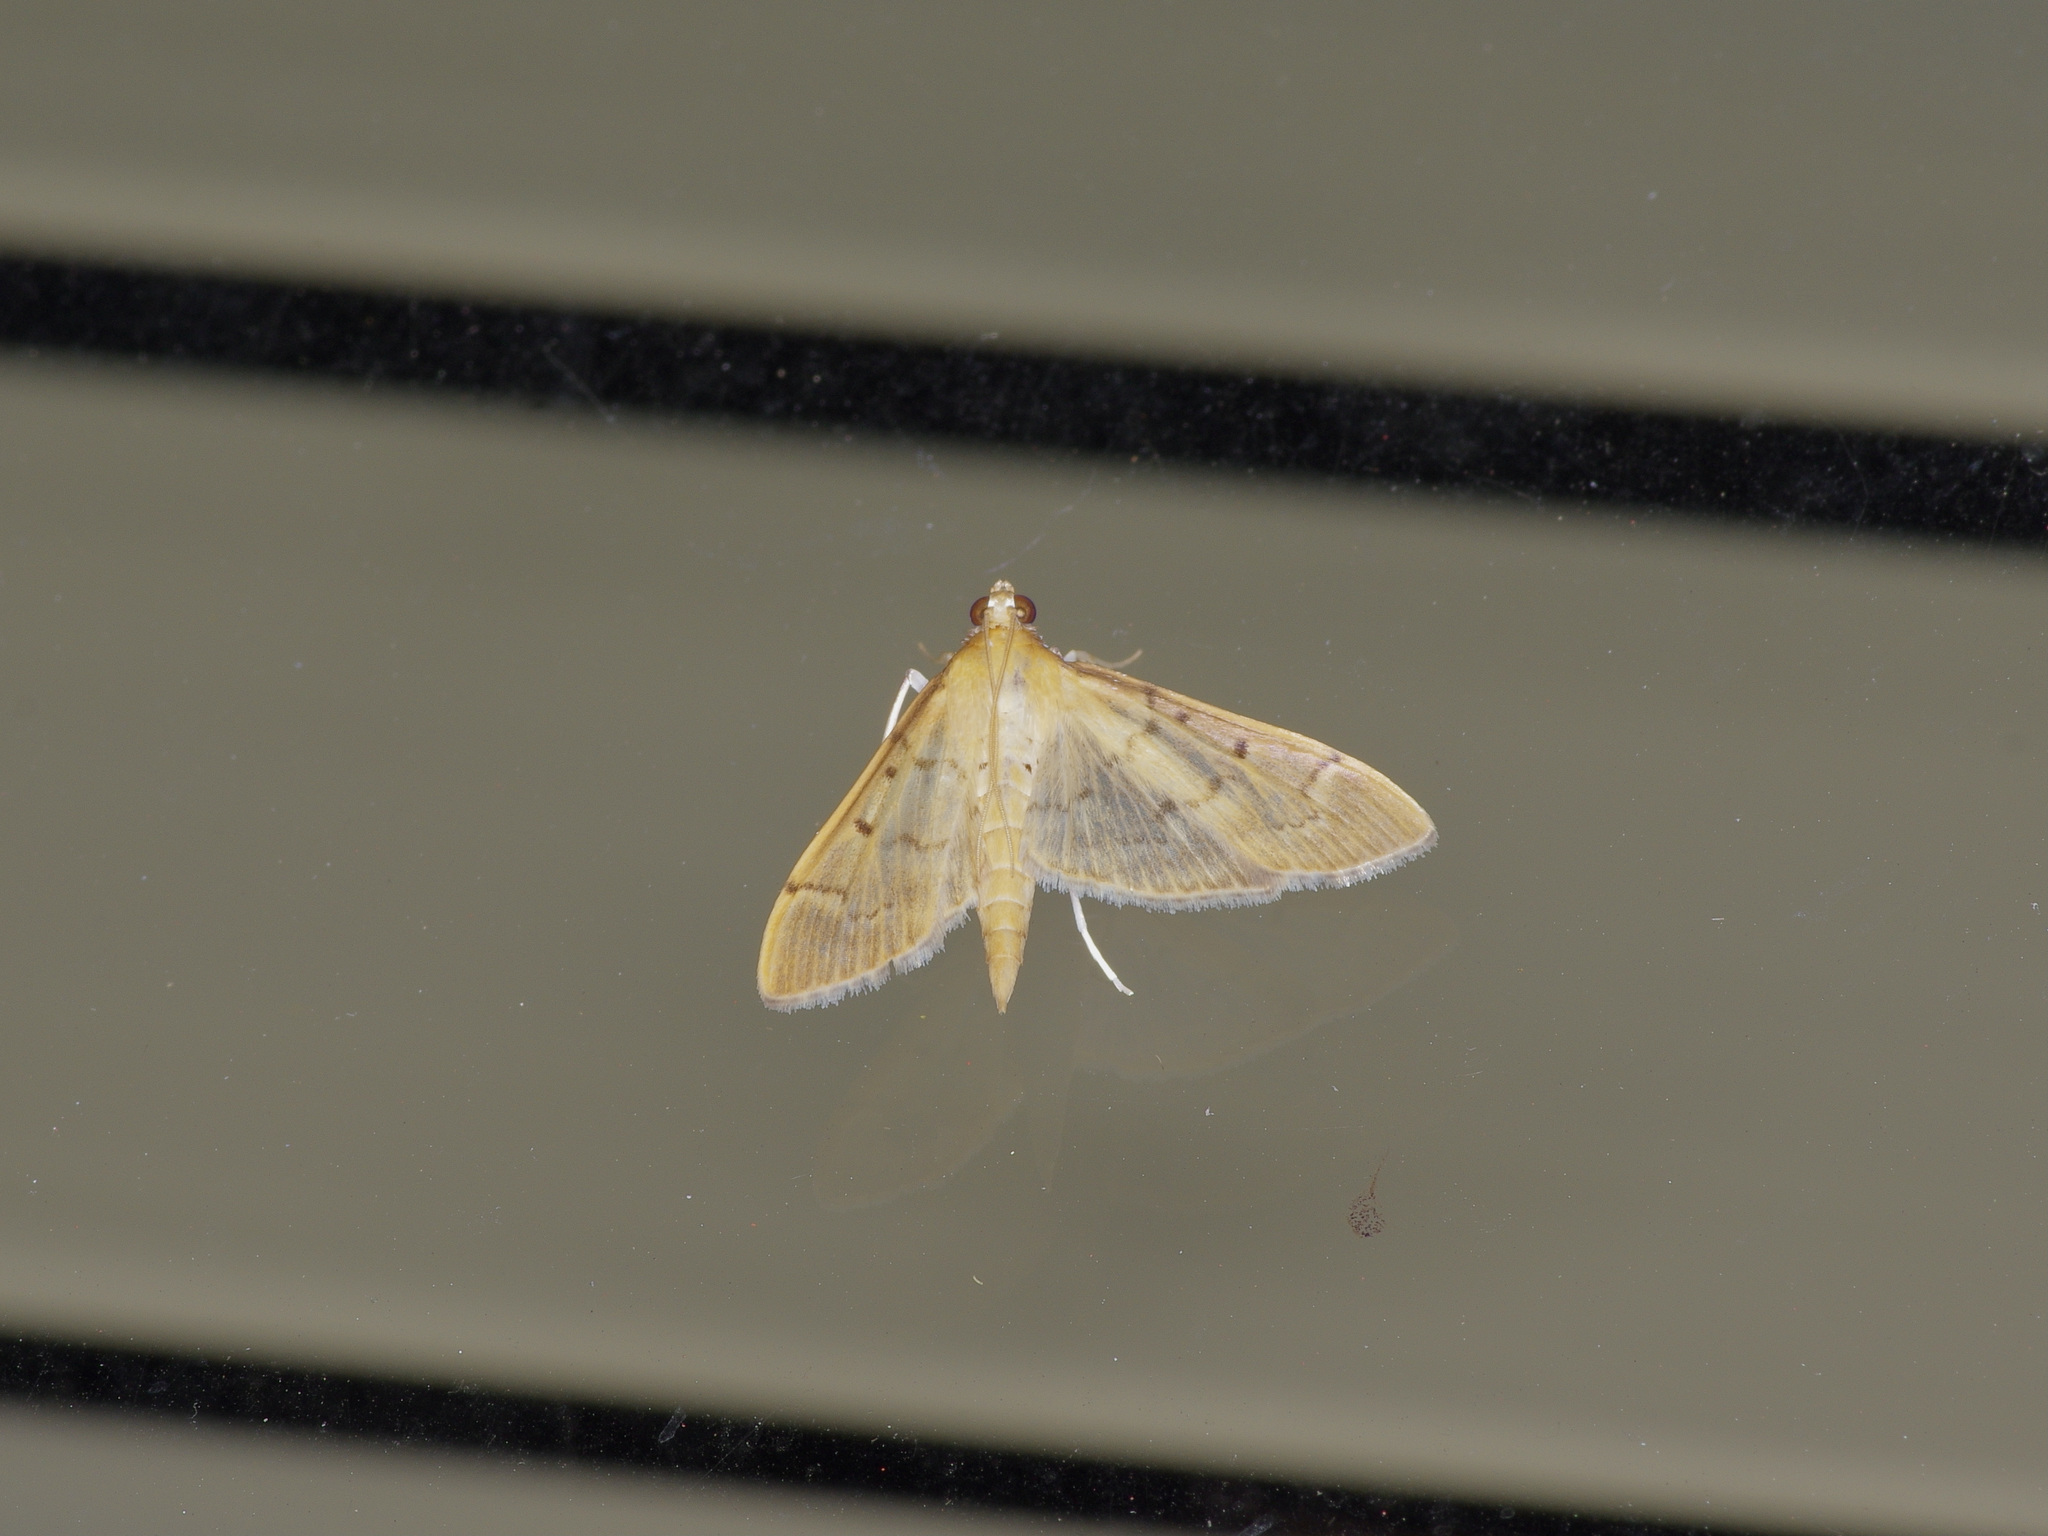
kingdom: Animalia
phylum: Arthropoda
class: Insecta
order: Lepidoptera
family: Crambidae
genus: Herpetogramma
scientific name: Herpetogramma bipunctalis
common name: Southern beet webworm
